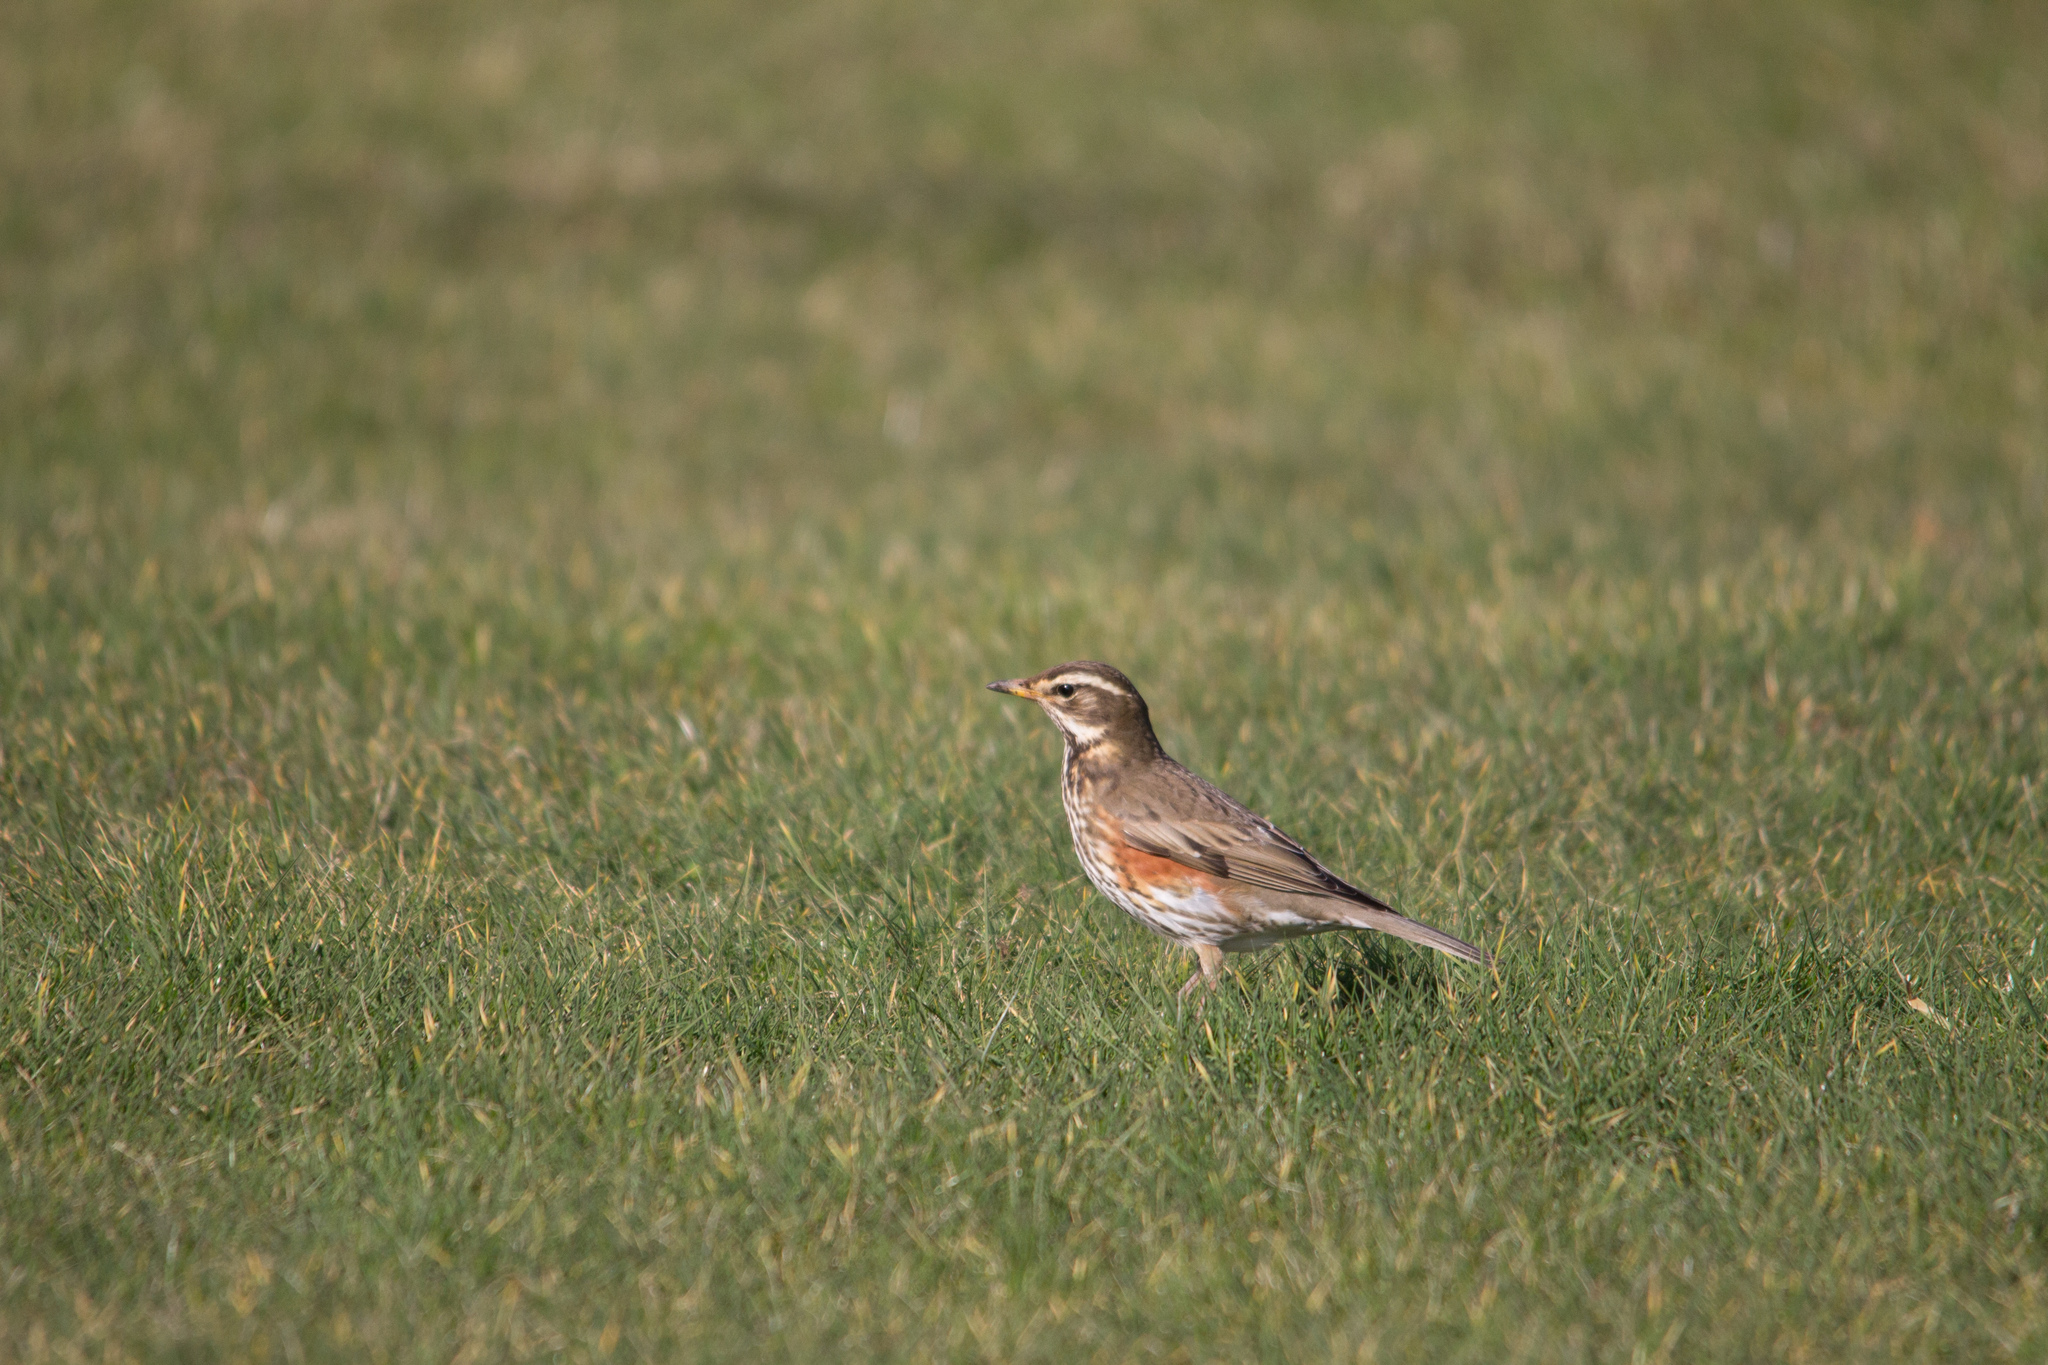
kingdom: Animalia
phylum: Chordata
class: Aves
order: Passeriformes
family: Turdidae
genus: Turdus
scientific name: Turdus iliacus
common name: Redwing
